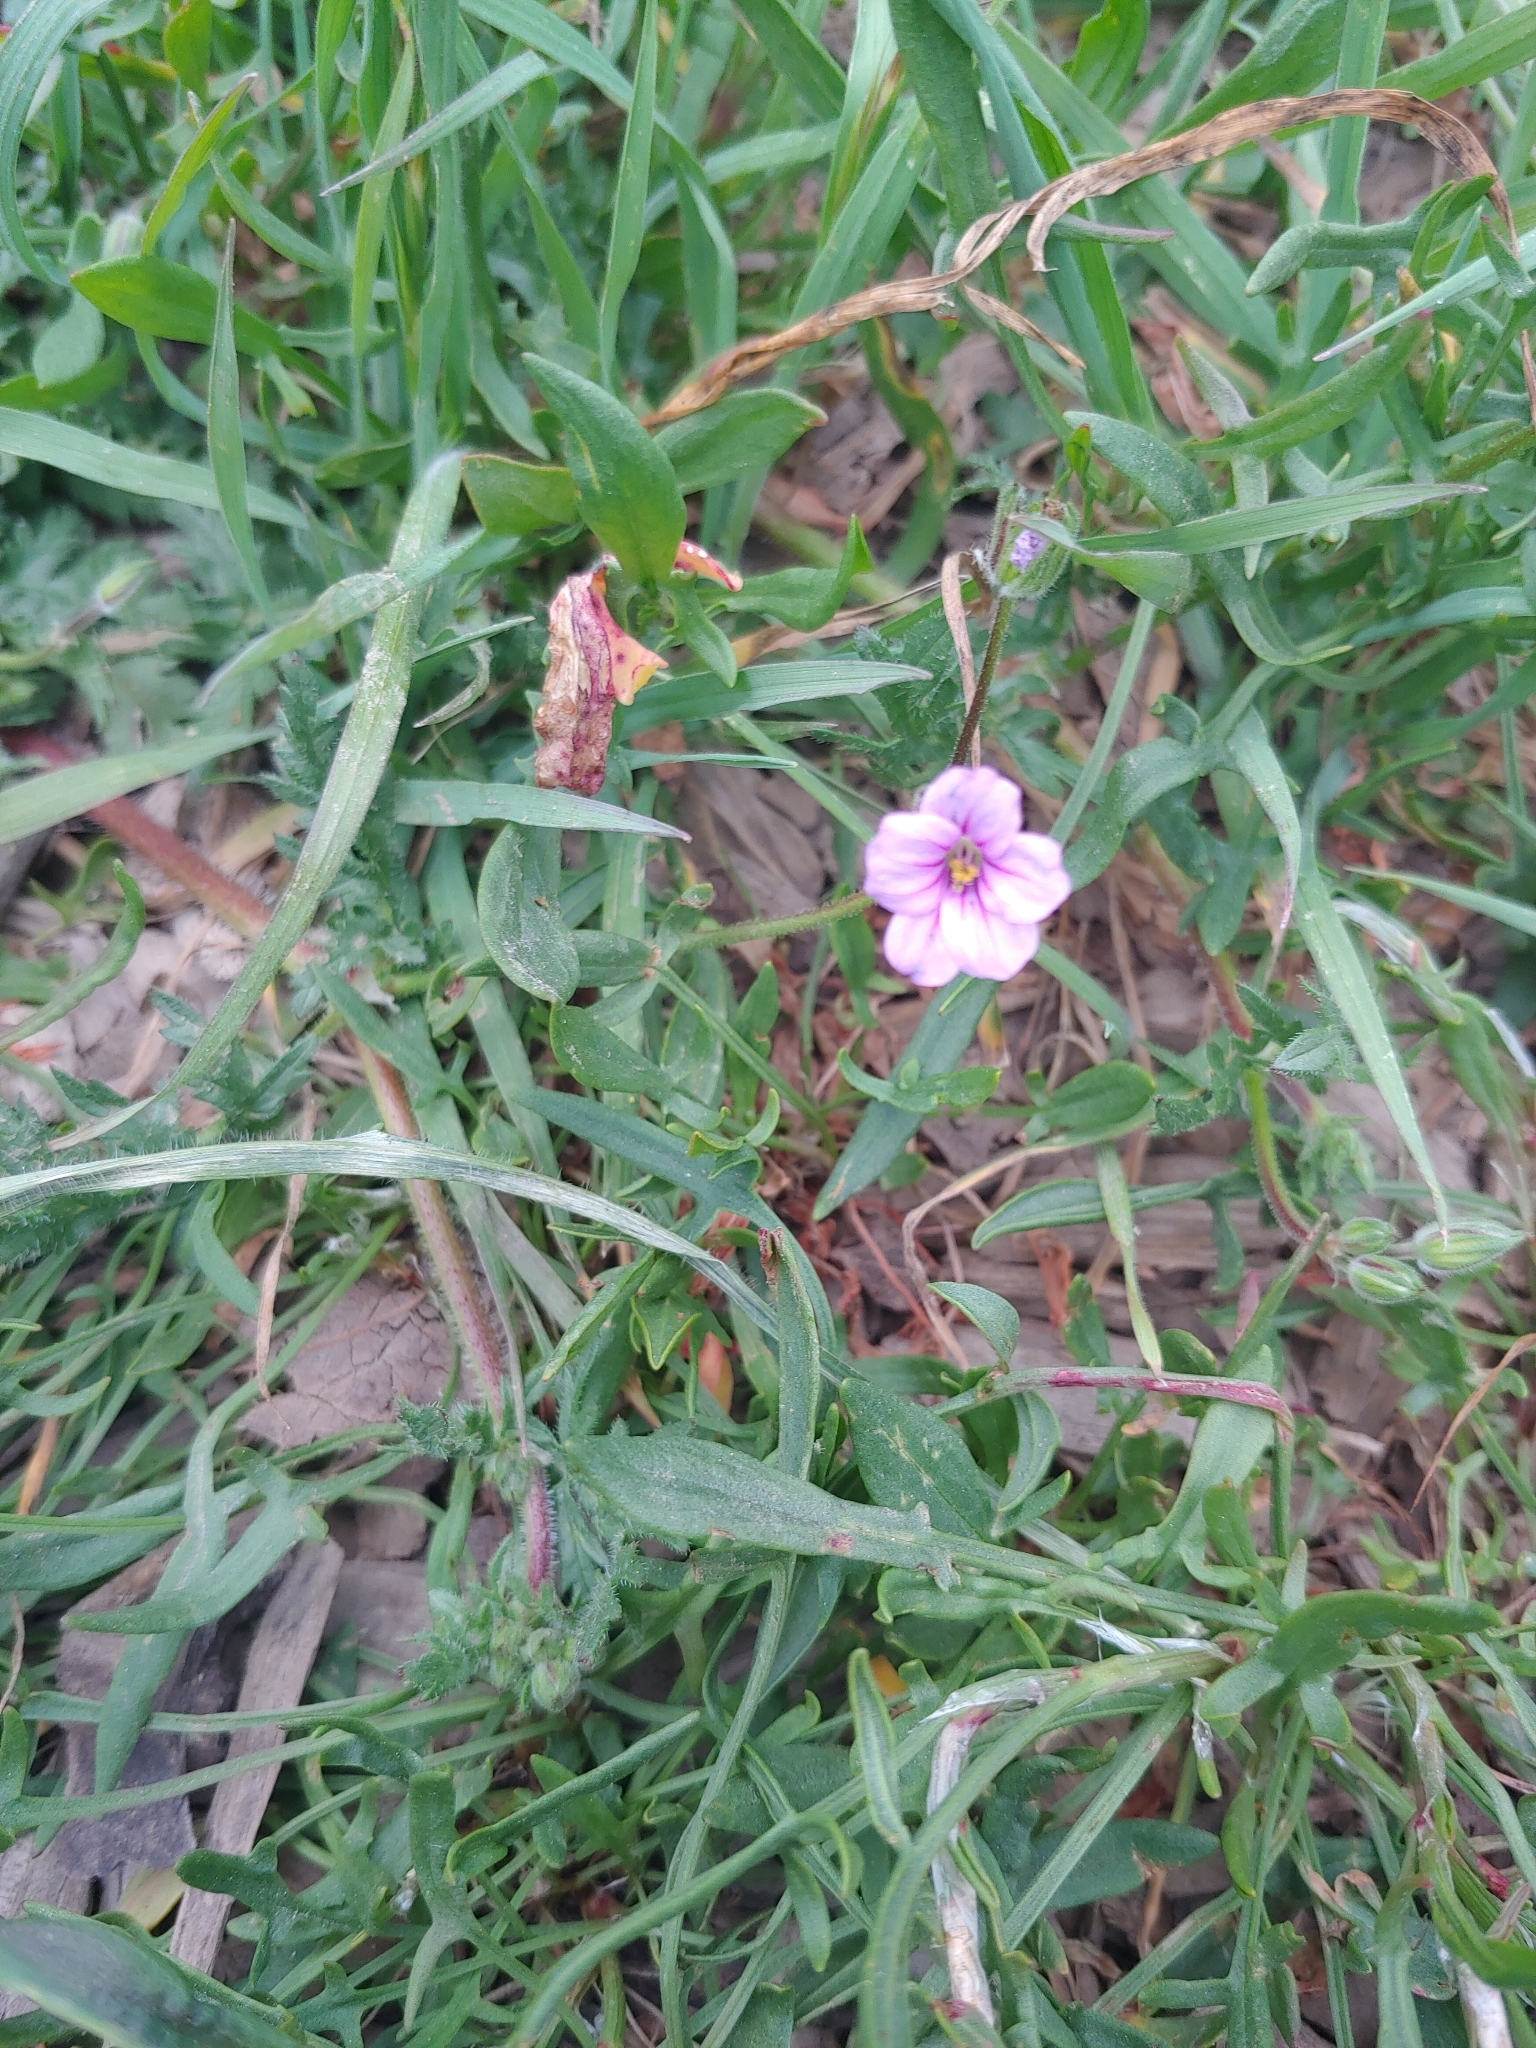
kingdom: Plantae
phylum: Tracheophyta
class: Magnoliopsida
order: Geraniales
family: Geraniaceae
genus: Erodium
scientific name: Erodium botrys
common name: Mediterranean stork's-bill
